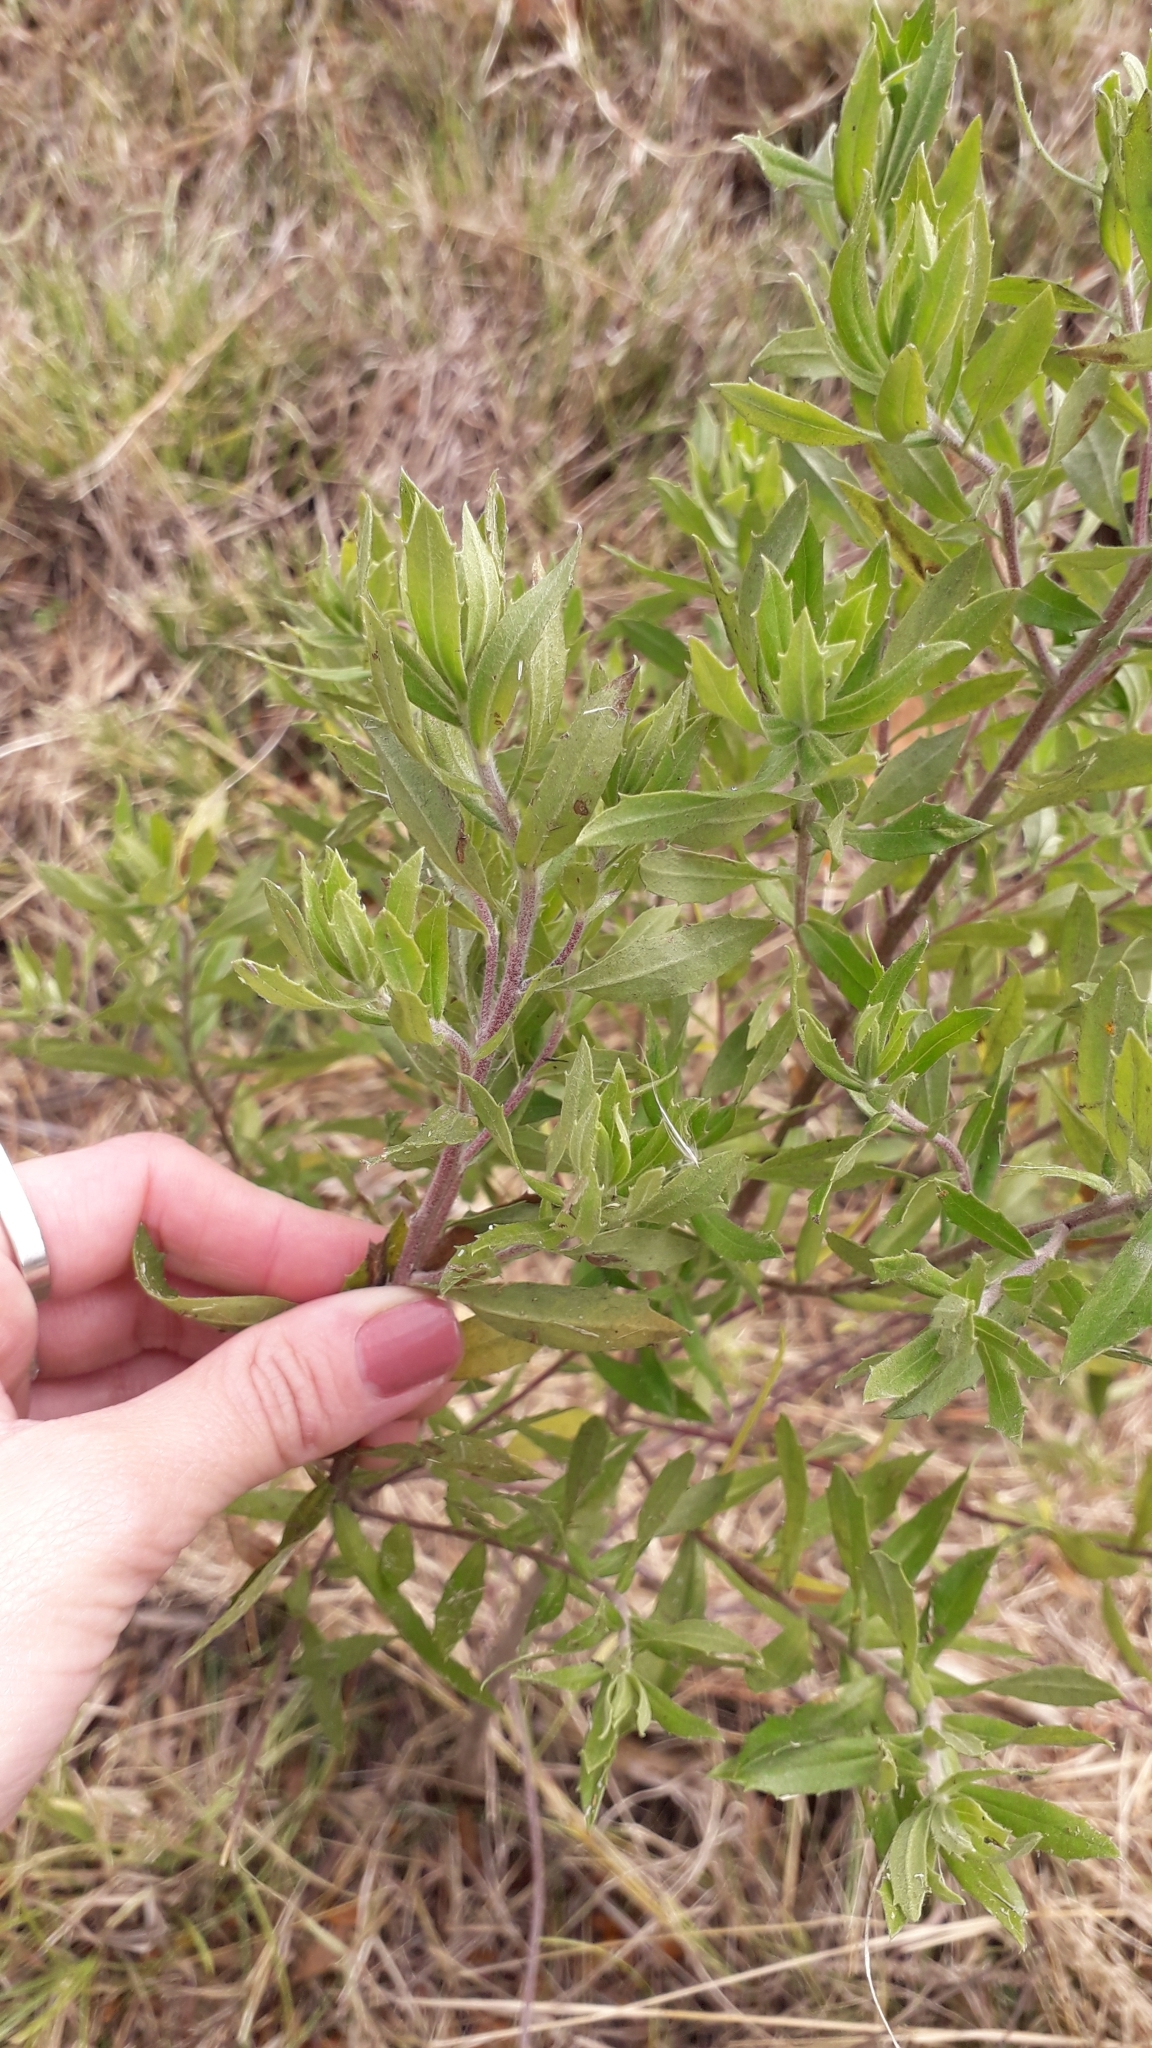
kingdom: Plantae
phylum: Tracheophyta
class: Magnoliopsida
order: Asterales
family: Asteraceae
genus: Baccharis
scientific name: Baccharis dracunculifolia
